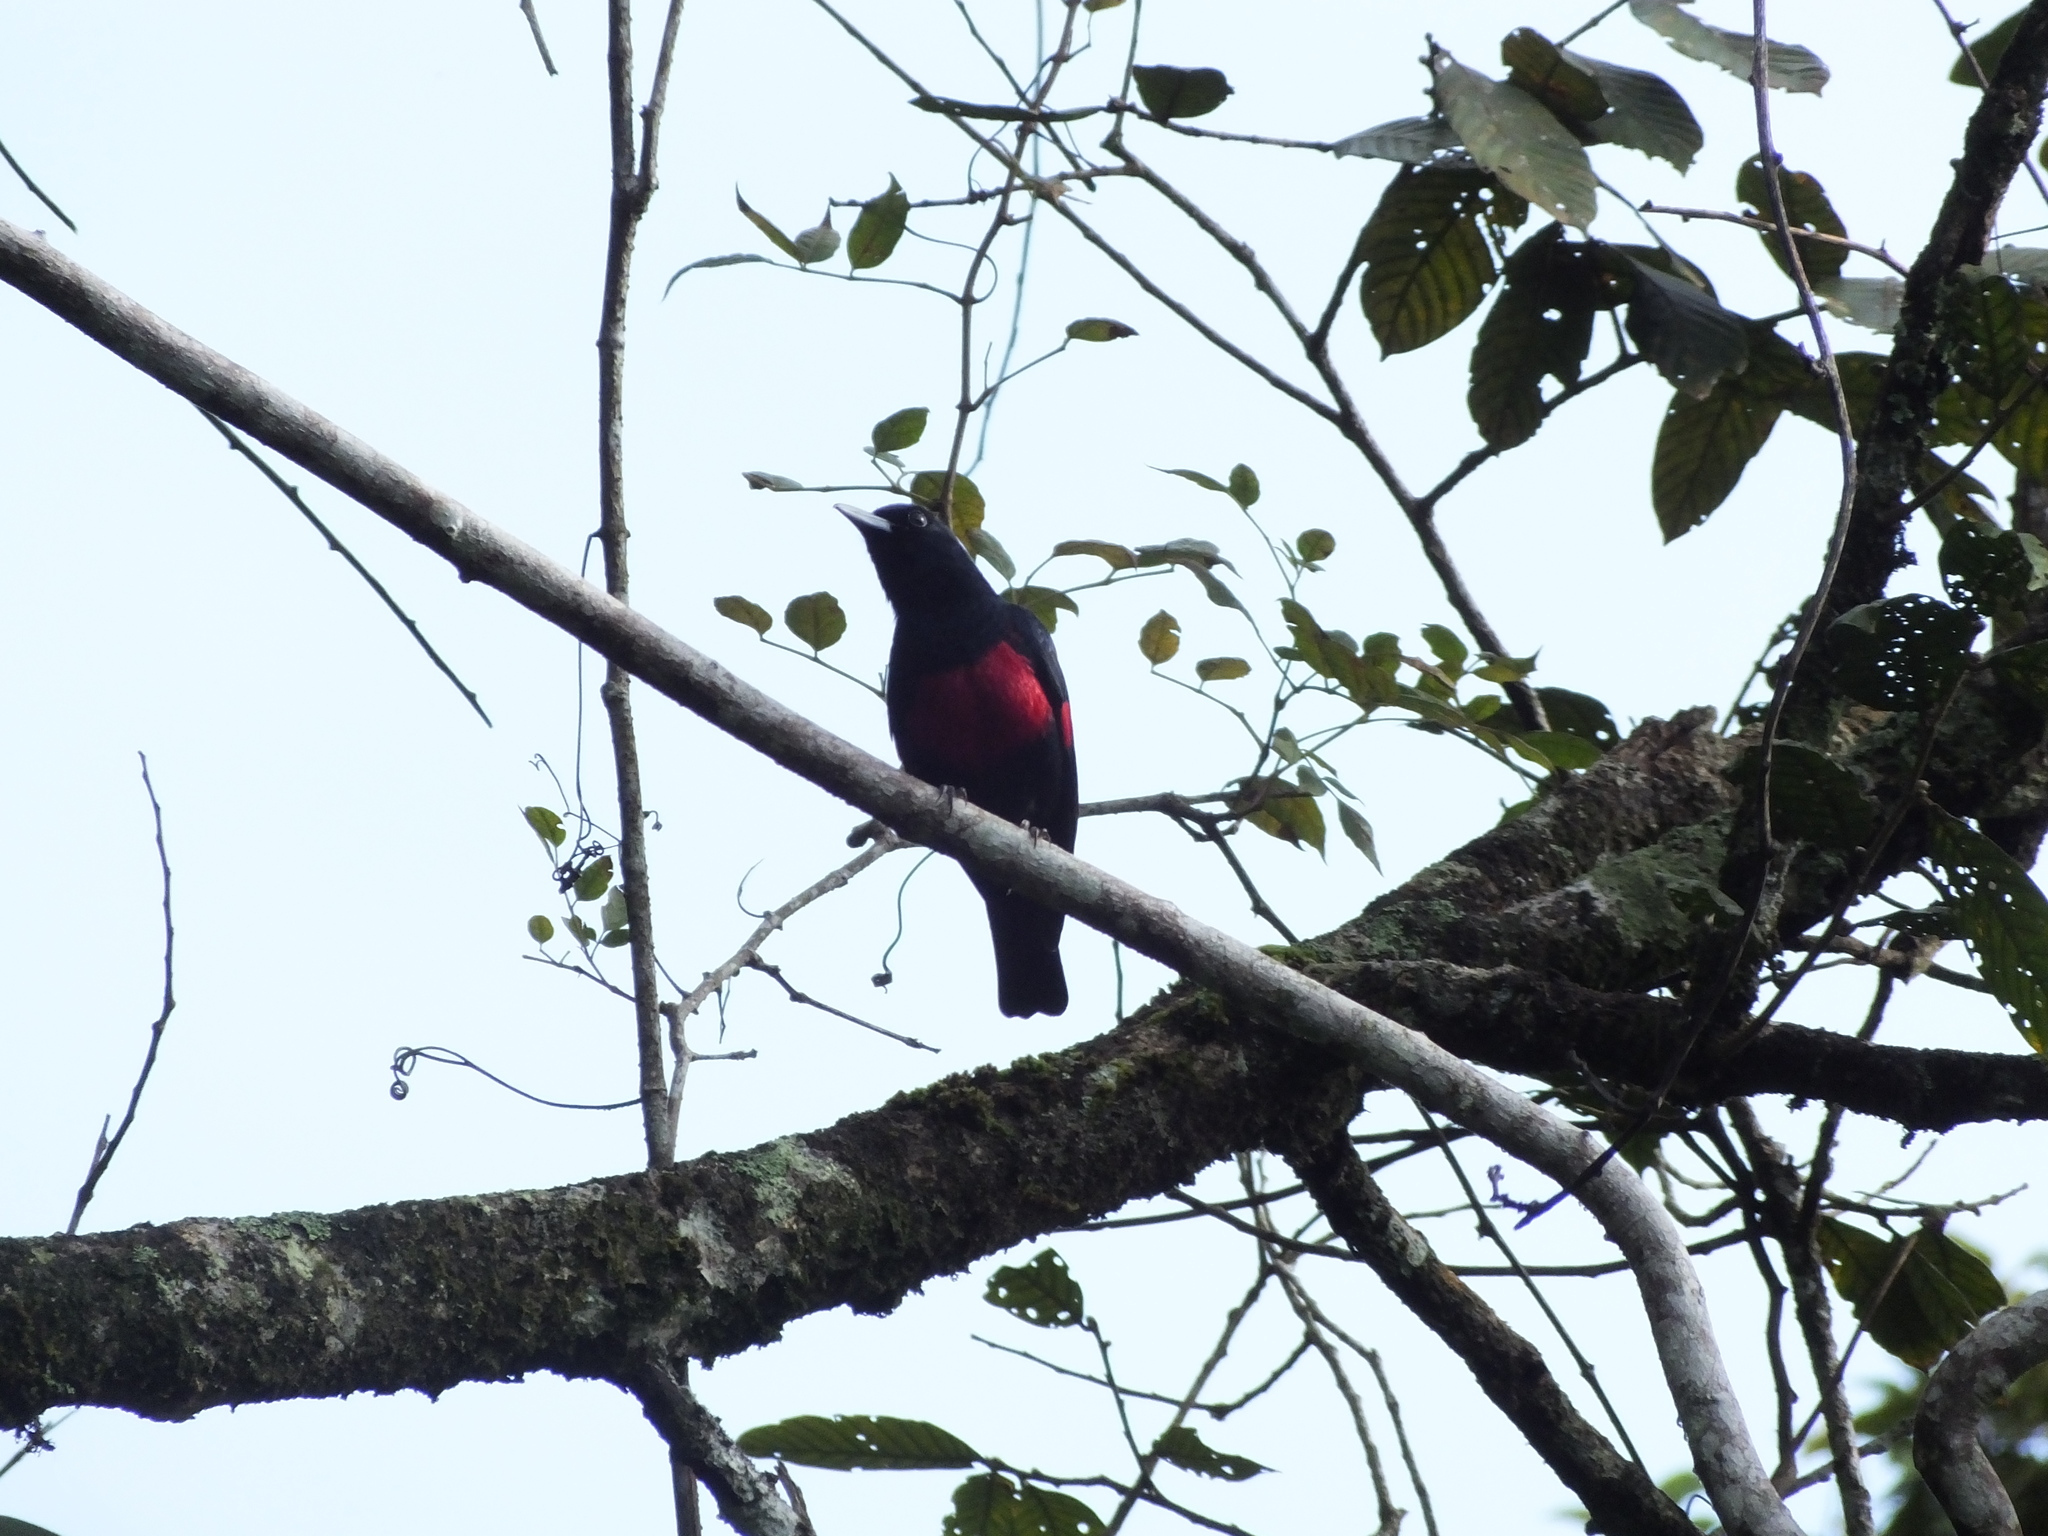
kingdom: Animalia
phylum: Chordata
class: Aves
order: Passeriformes
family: Oriolidae
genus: Oriolus
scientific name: Oriolus cruentus
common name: Black-and-crimson oriole
